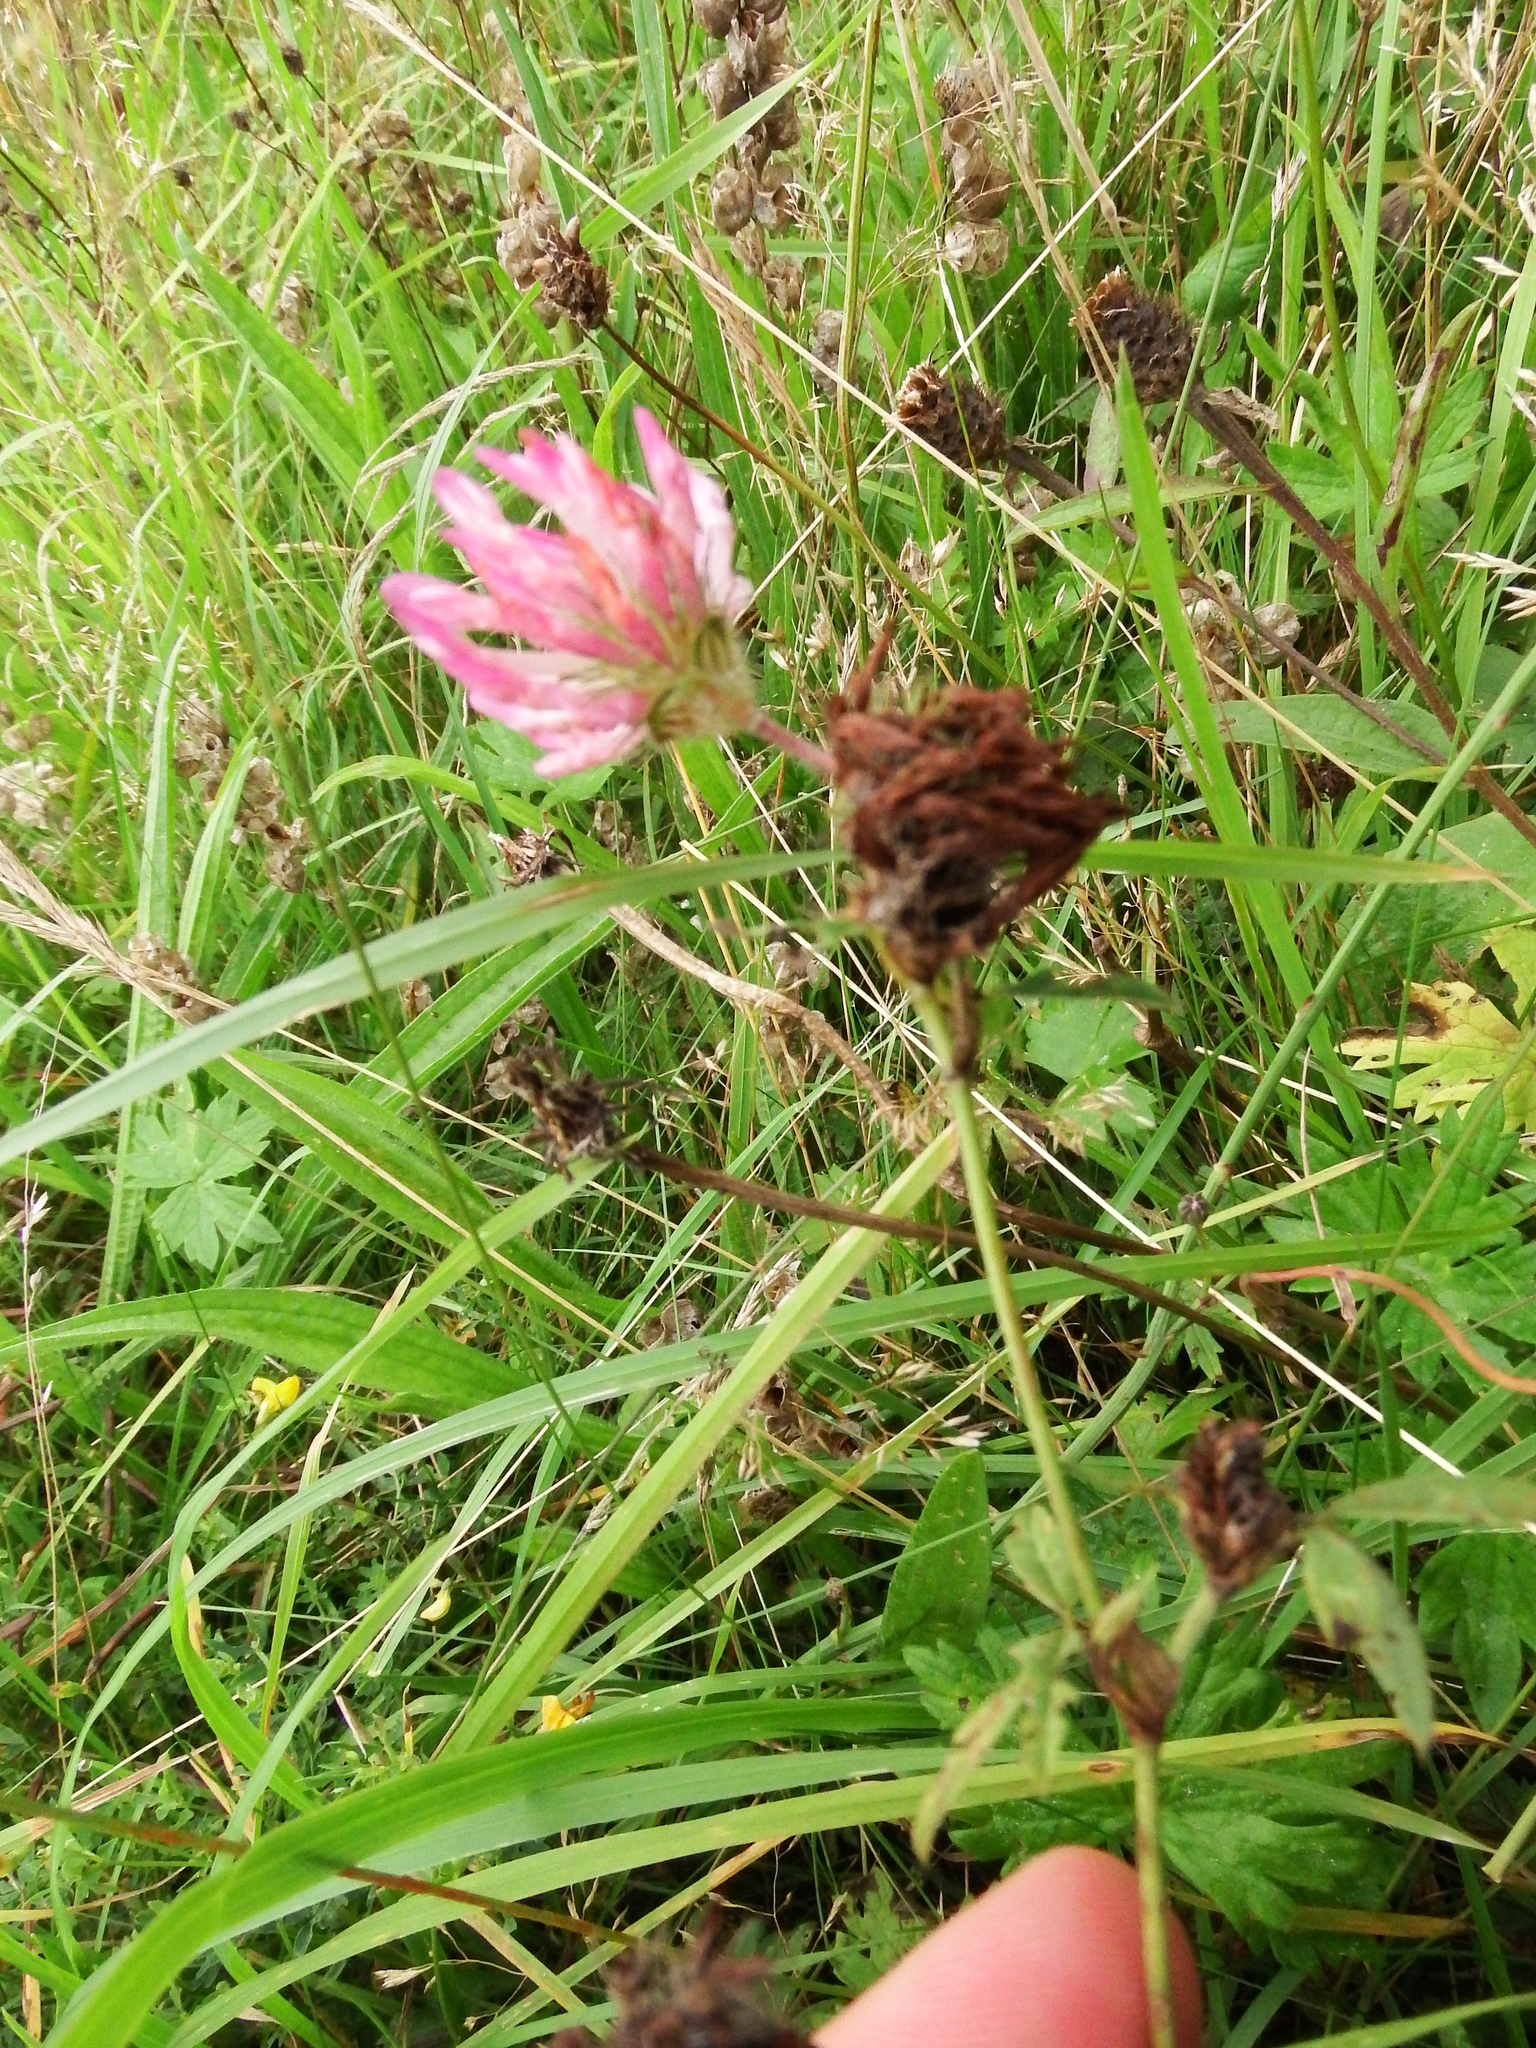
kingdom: Plantae
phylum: Tracheophyta
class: Magnoliopsida
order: Fabales
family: Fabaceae
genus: Trifolium
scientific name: Trifolium pratense
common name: Red clover
